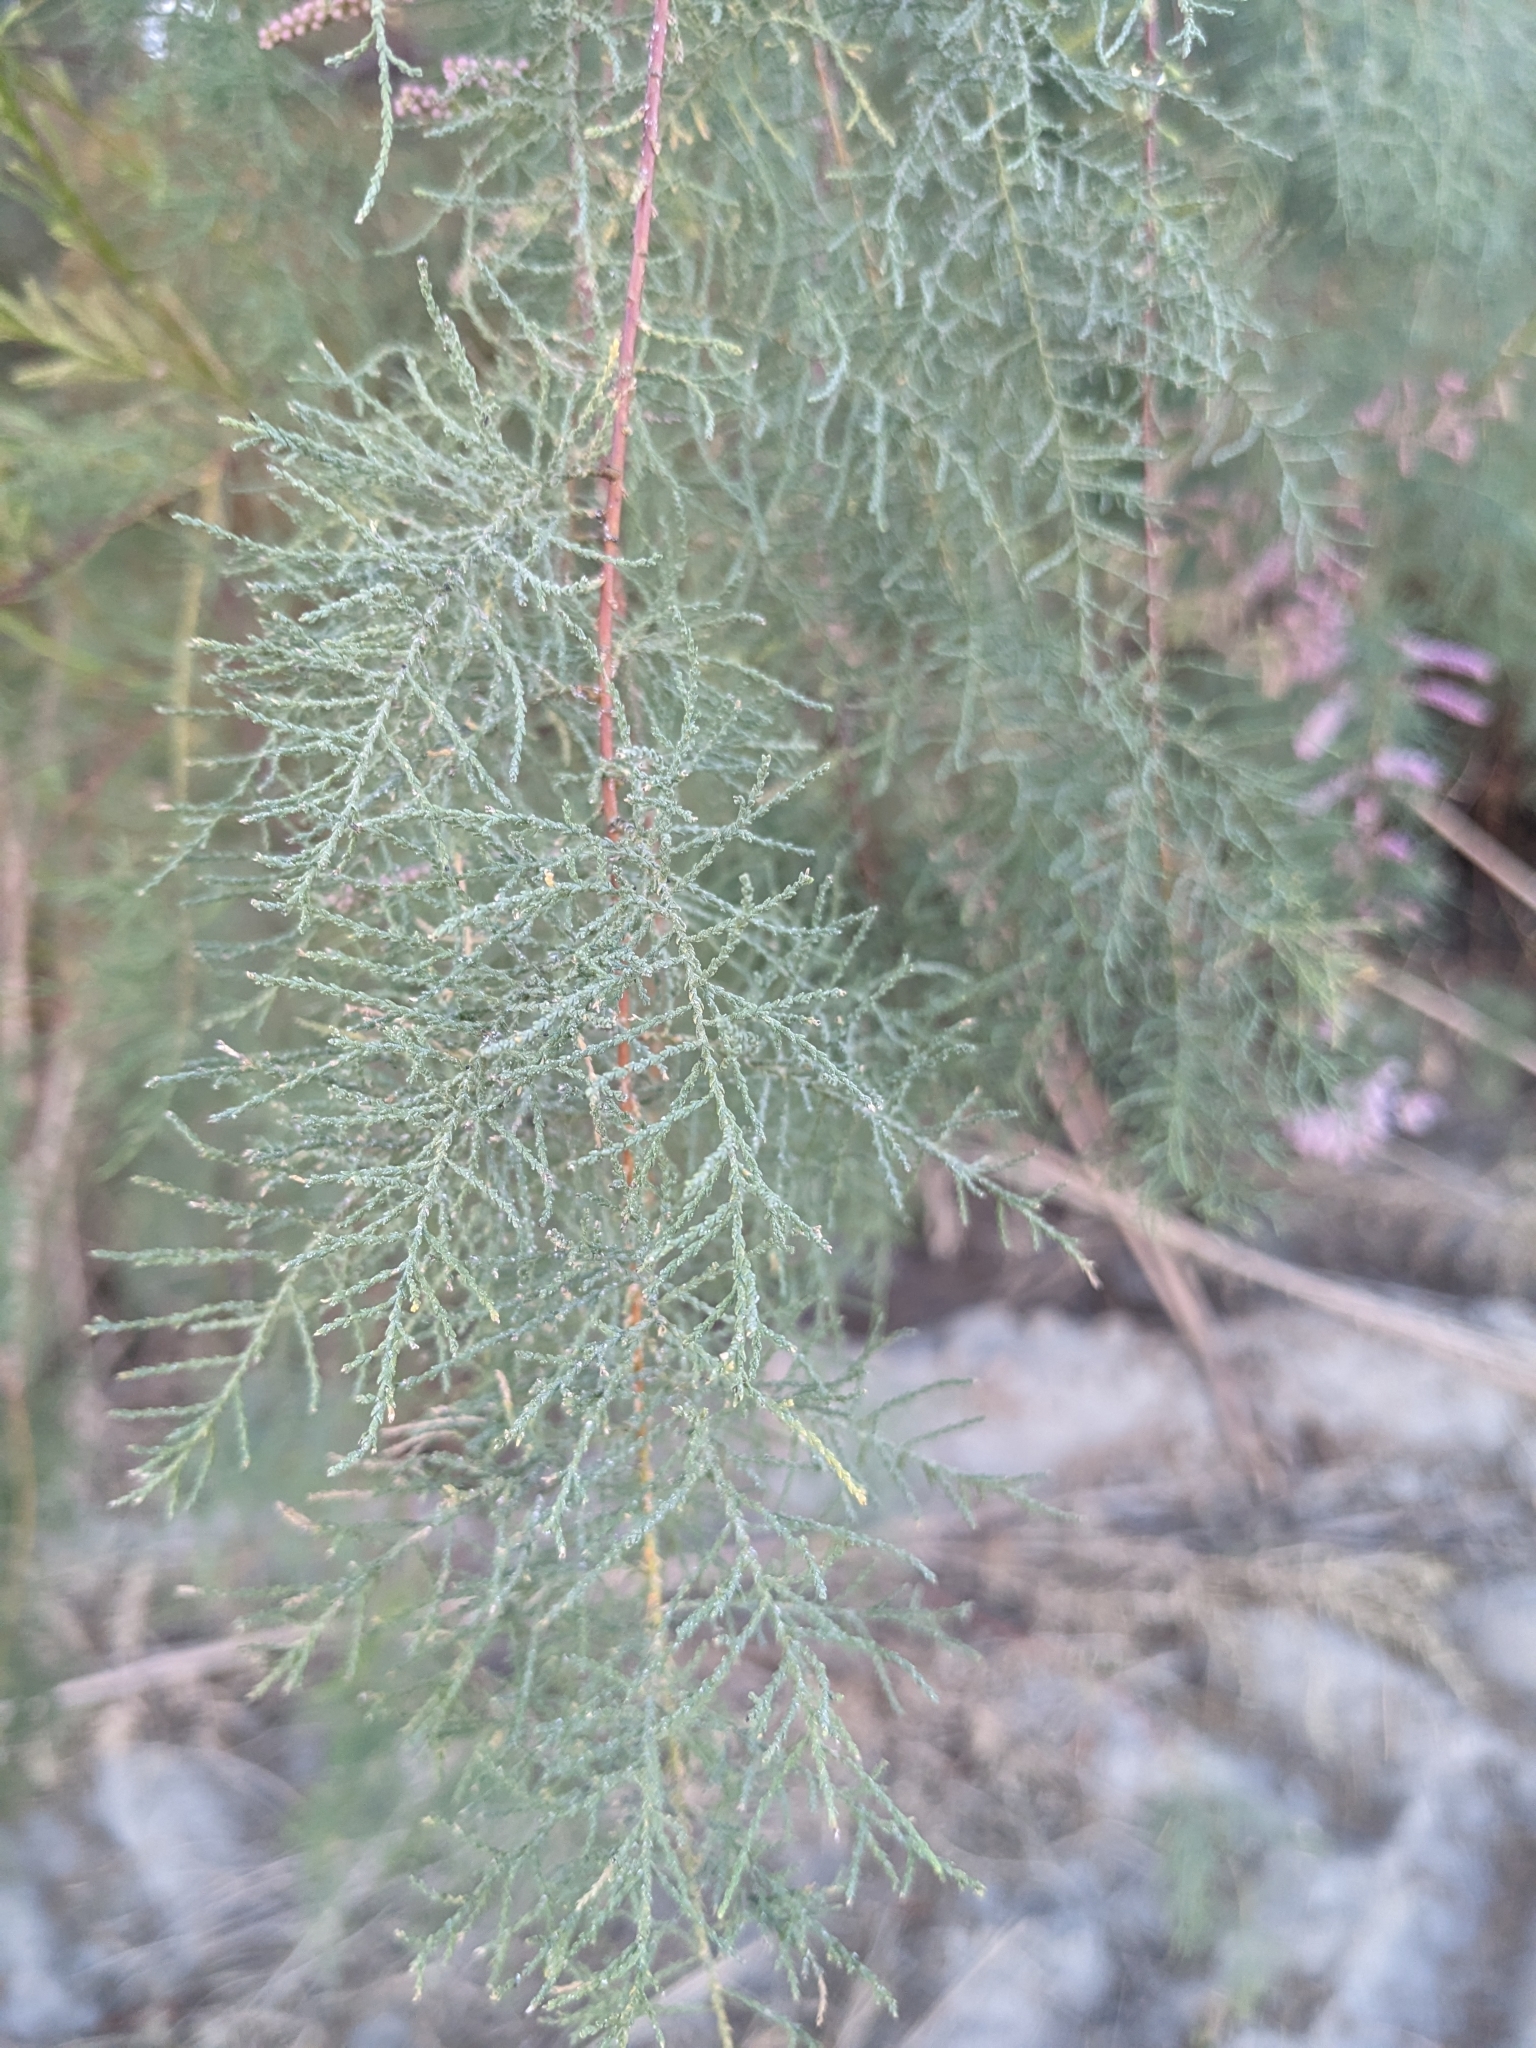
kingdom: Plantae
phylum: Tracheophyta
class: Magnoliopsida
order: Caryophyllales
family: Tamaricaceae
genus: Tamarix
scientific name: Tamarix ramosissima
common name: Pink tamarisk
